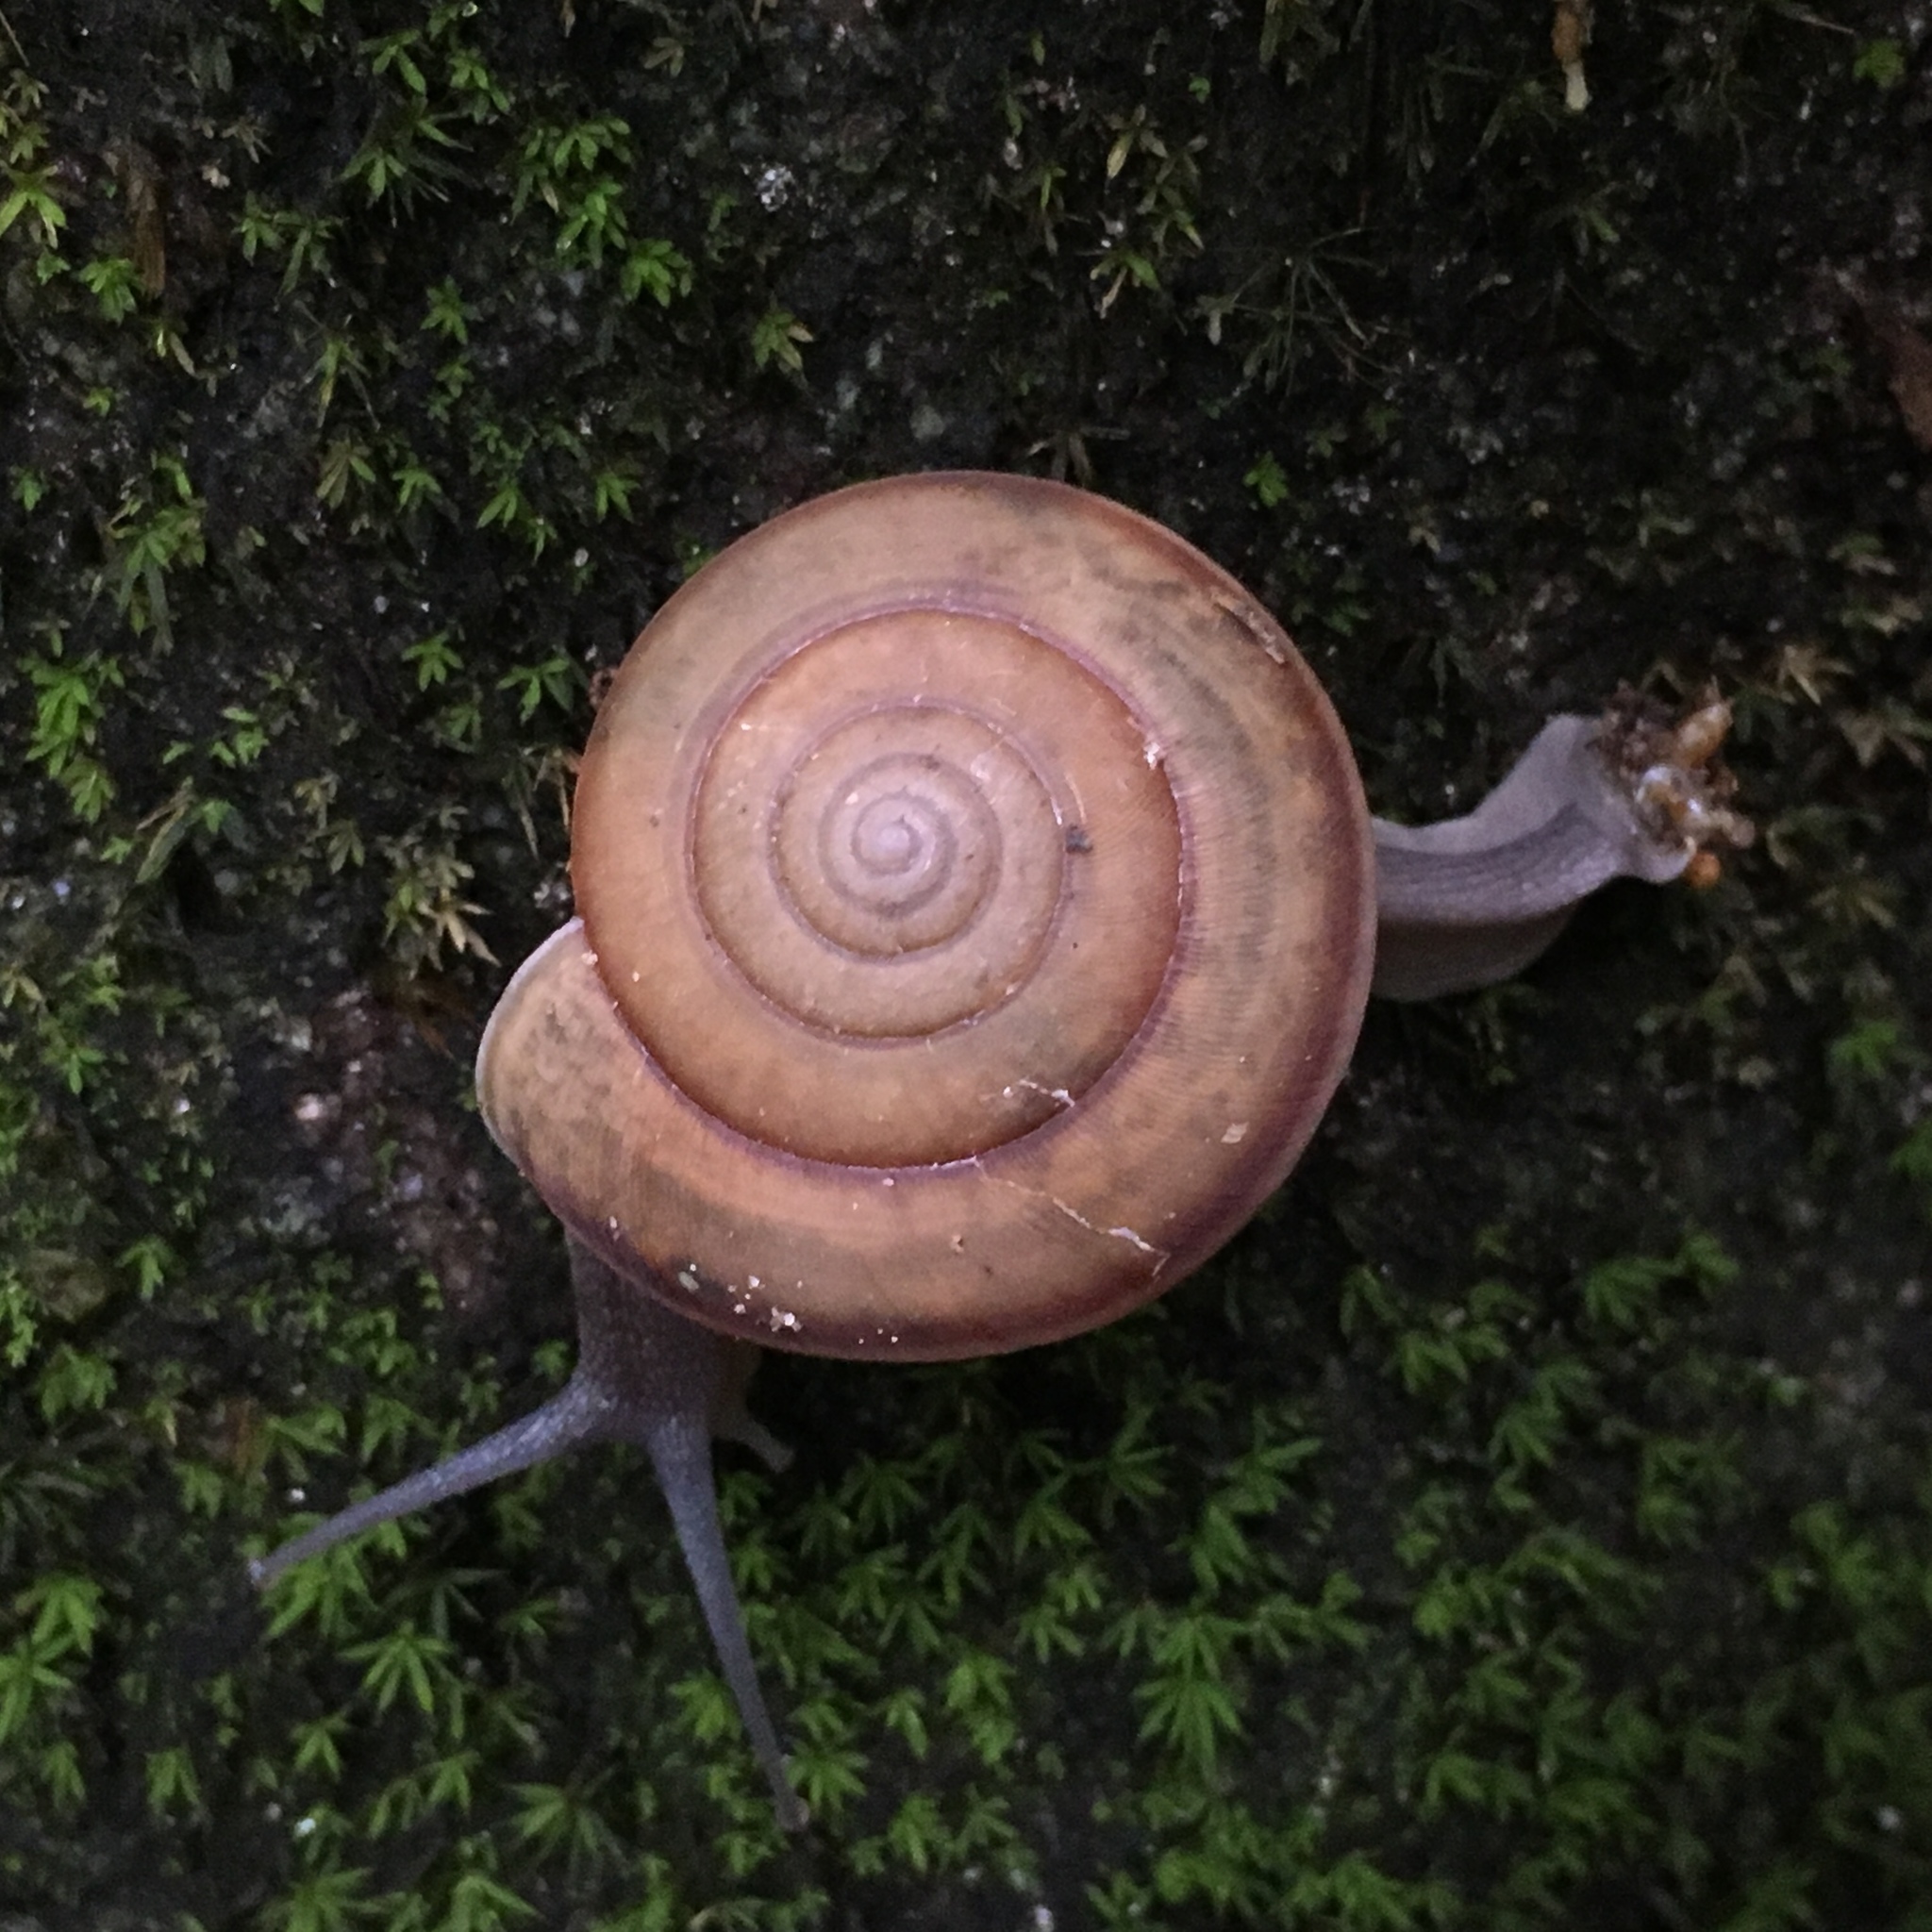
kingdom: Animalia
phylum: Mollusca
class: Gastropoda
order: Stylommatophora
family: Ariophantidae
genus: Sarika
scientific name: Sarika siamensis
